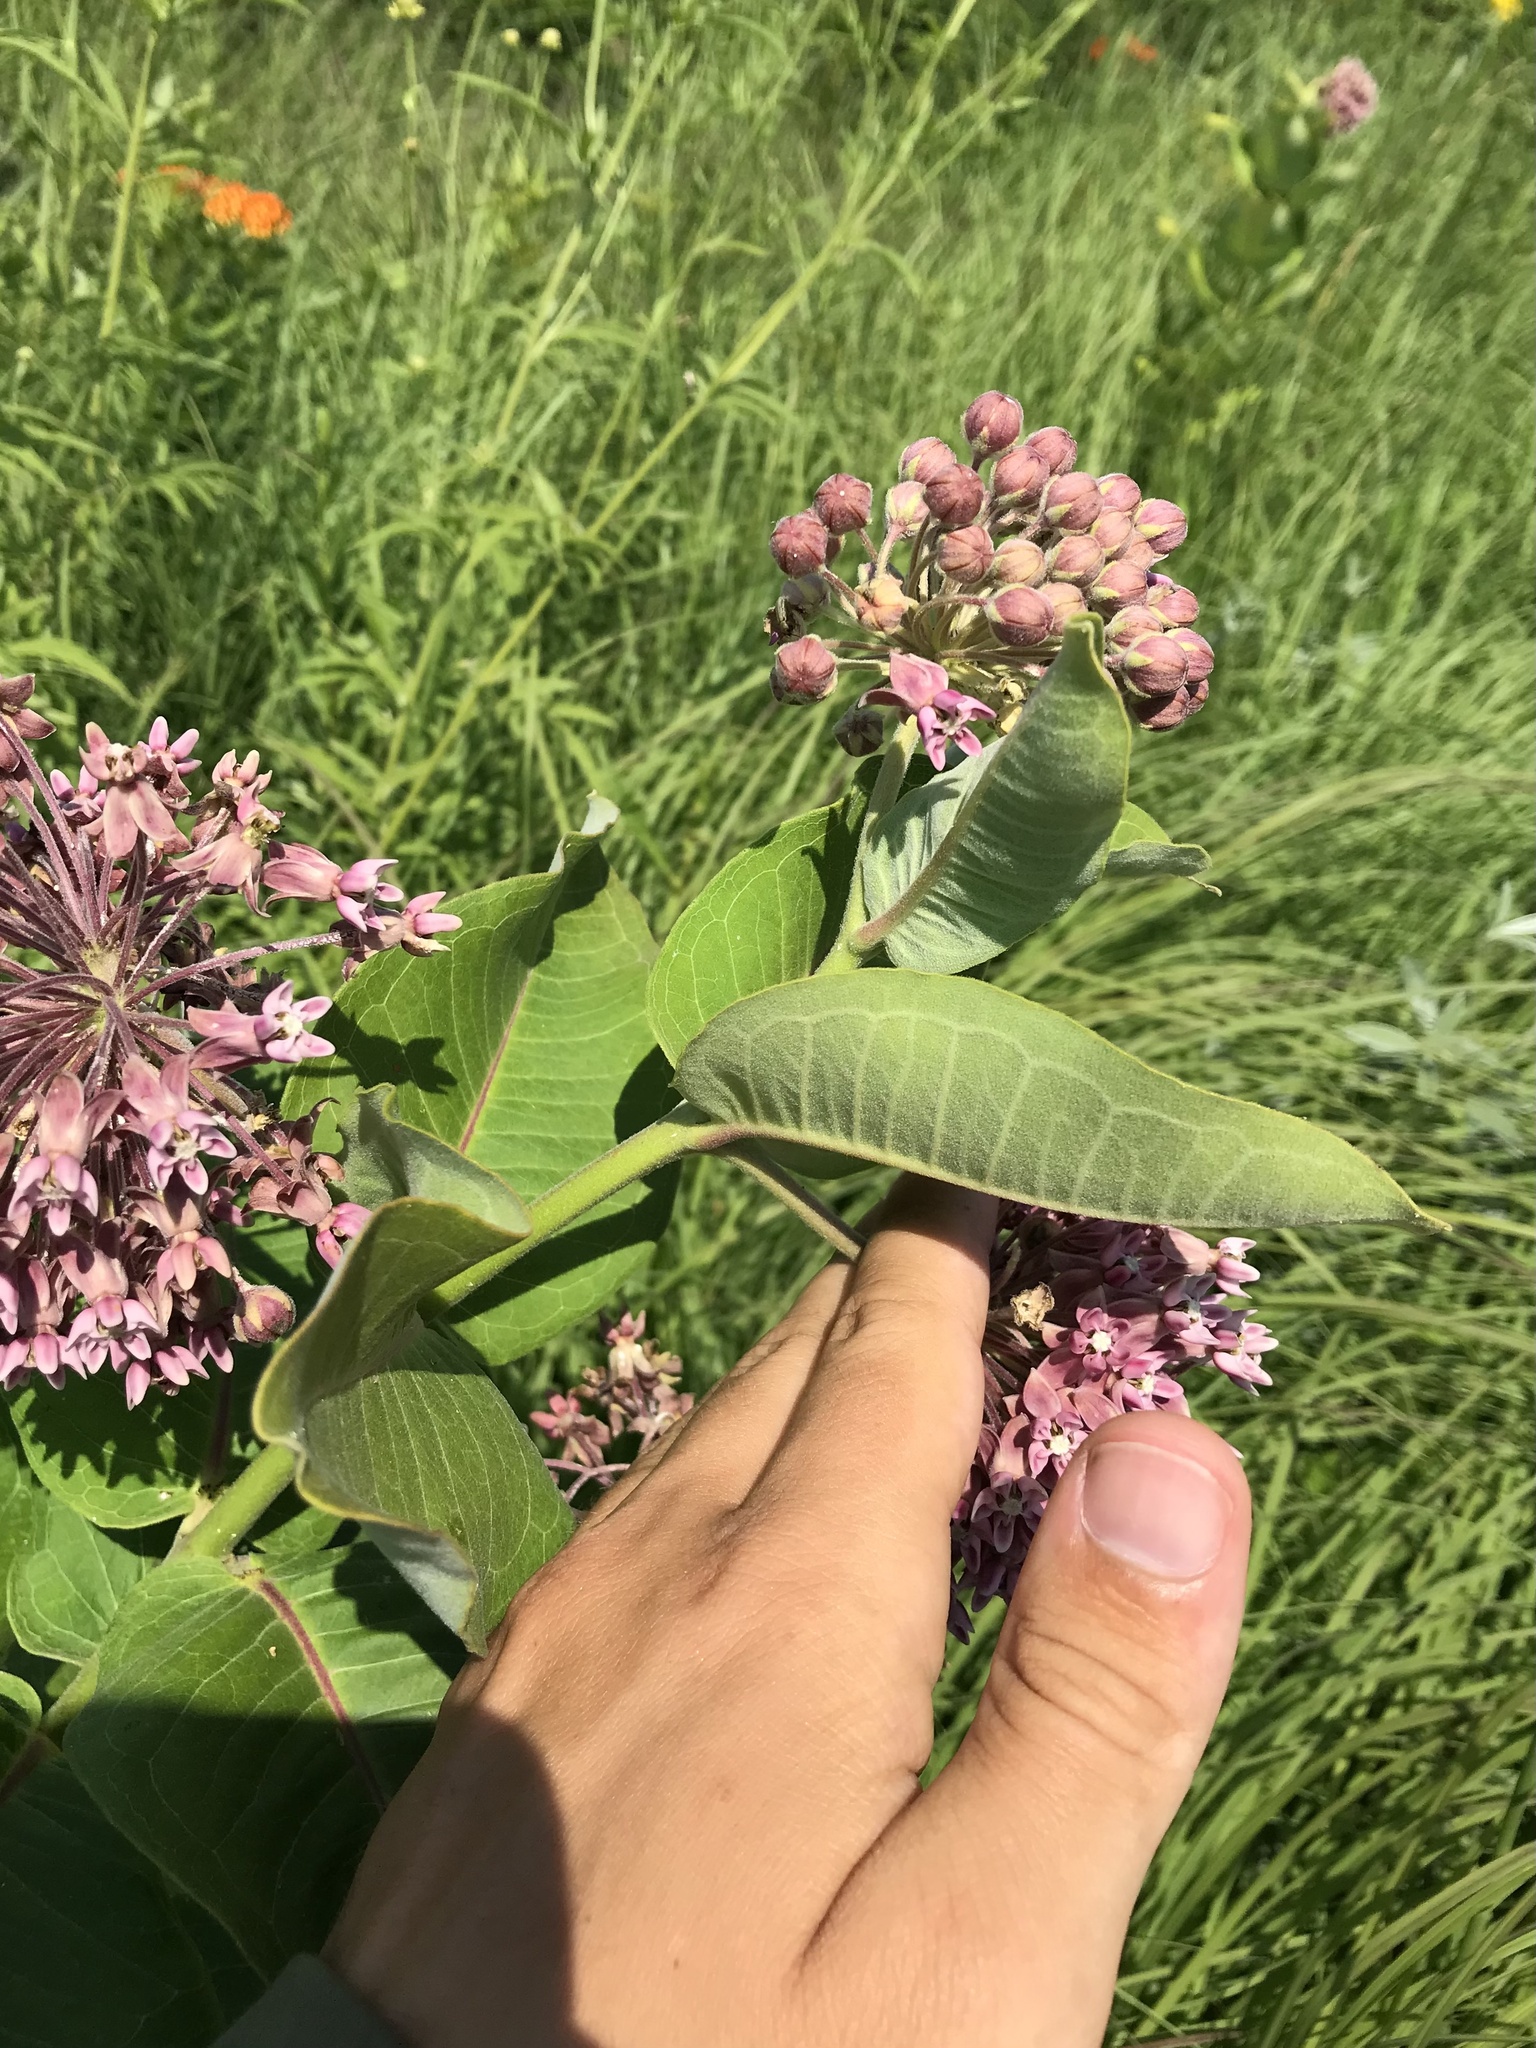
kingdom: Plantae
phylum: Tracheophyta
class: Magnoliopsida
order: Gentianales
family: Apocynaceae
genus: Asclepias
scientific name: Asclepias syriaca
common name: Common milkweed
